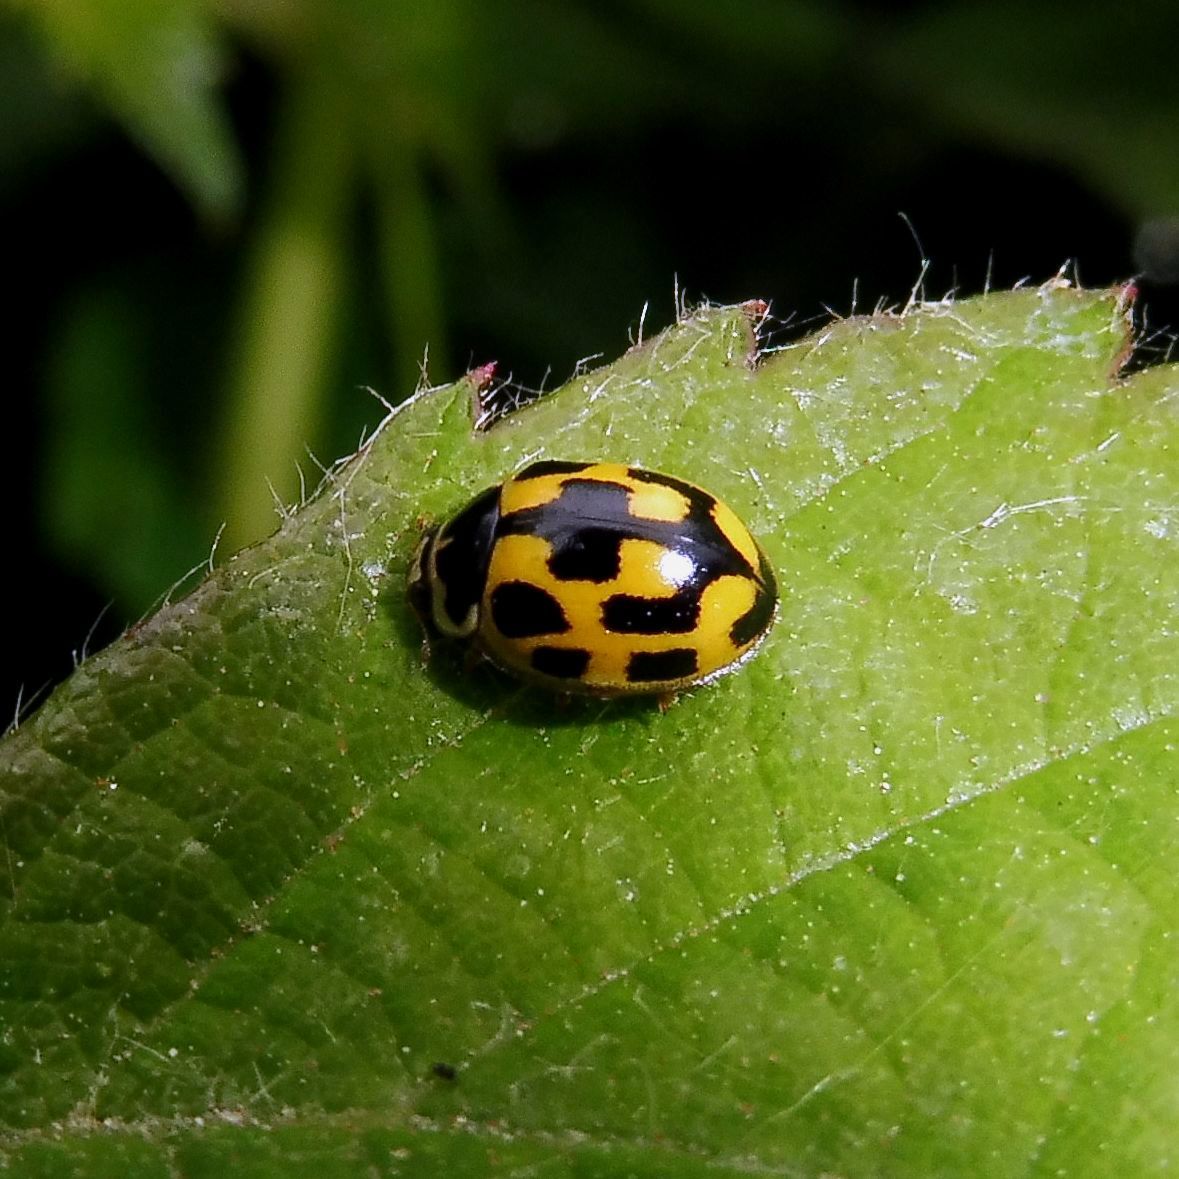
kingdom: Animalia
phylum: Arthropoda
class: Insecta
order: Coleoptera
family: Coccinellidae
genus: Propylaea
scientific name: Propylaea quatuordecimpunctata
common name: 14-spotted ladybird beetle
